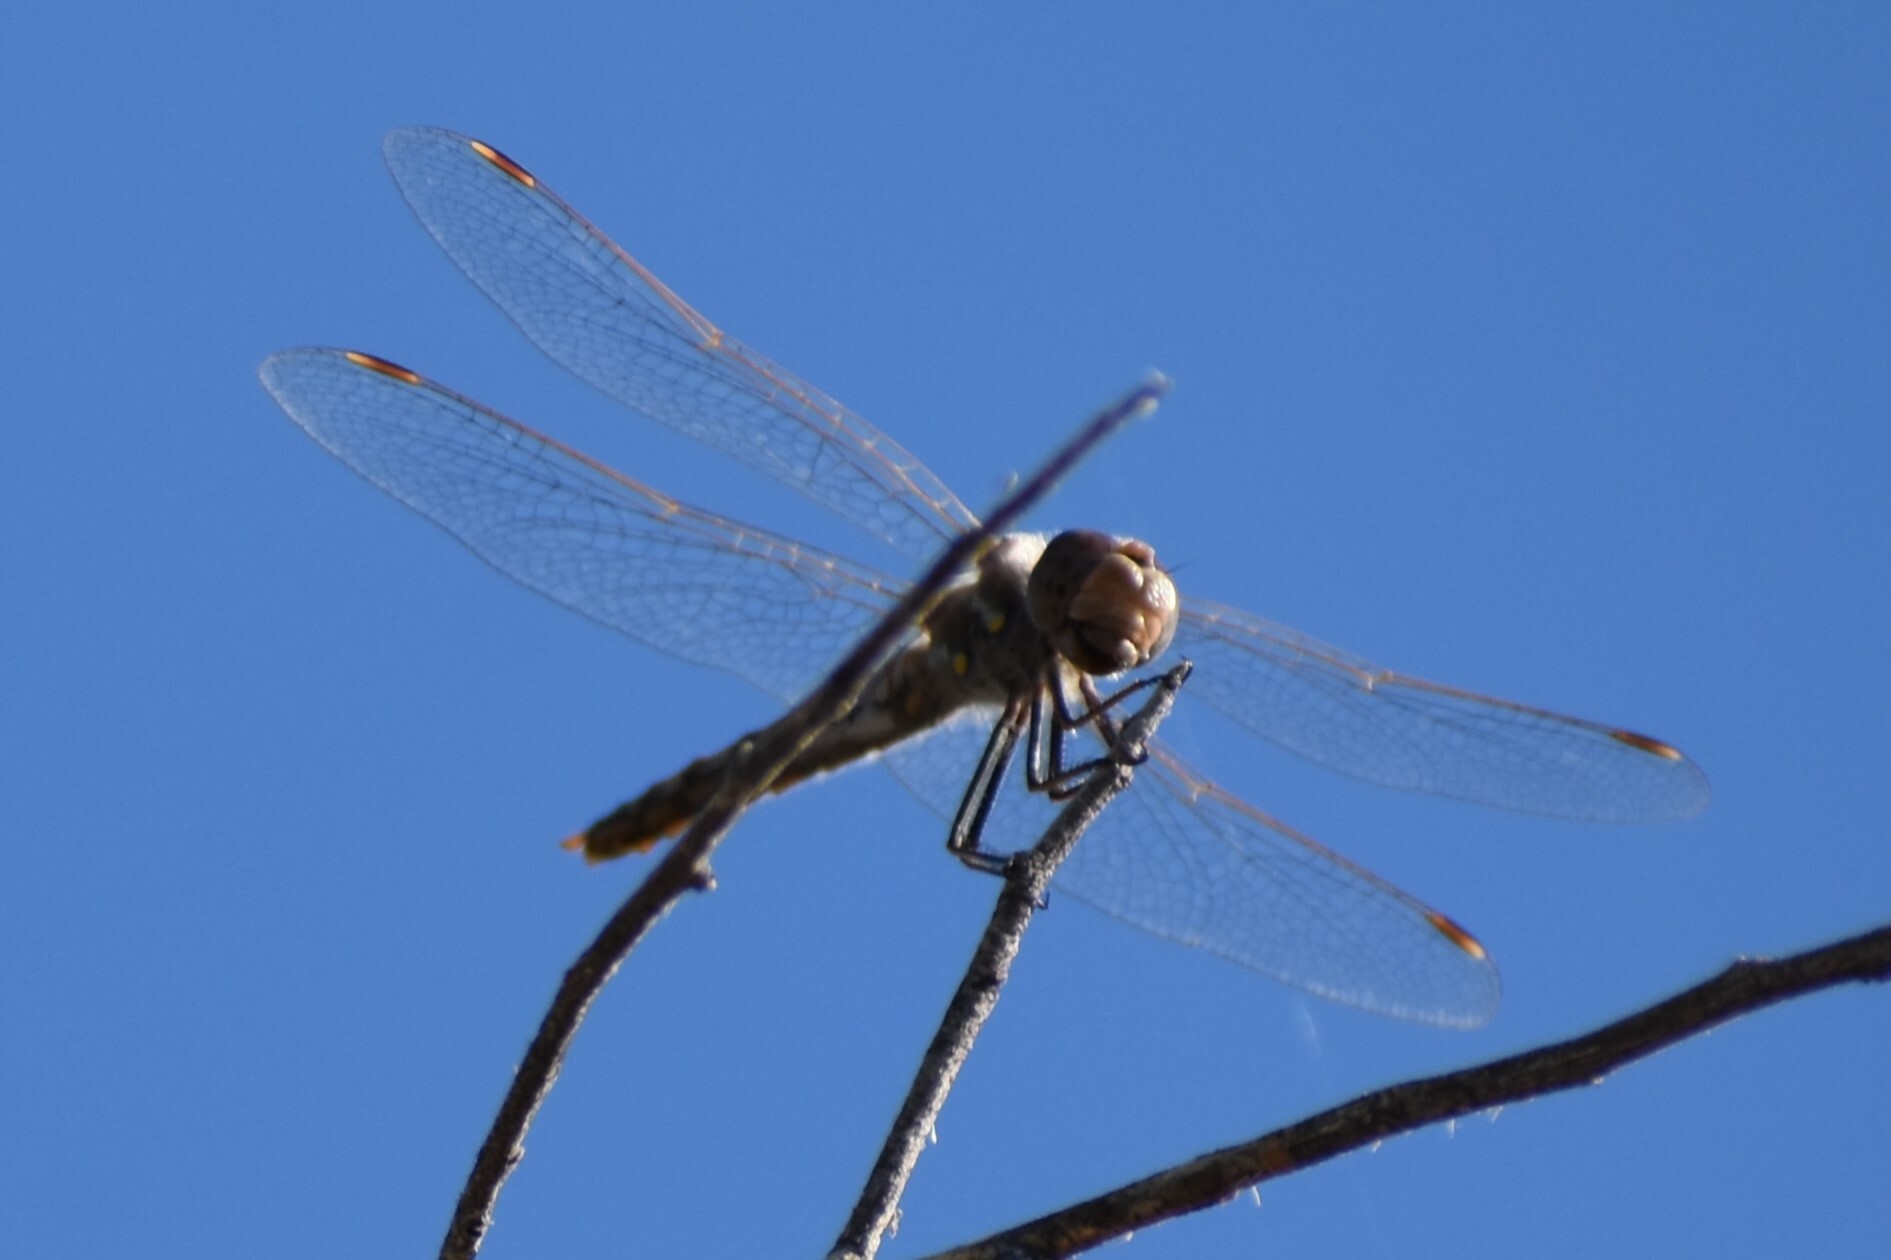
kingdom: Animalia
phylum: Arthropoda
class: Insecta
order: Odonata
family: Libellulidae
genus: Sympetrum
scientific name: Sympetrum corruptum
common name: Variegated meadowhawk
